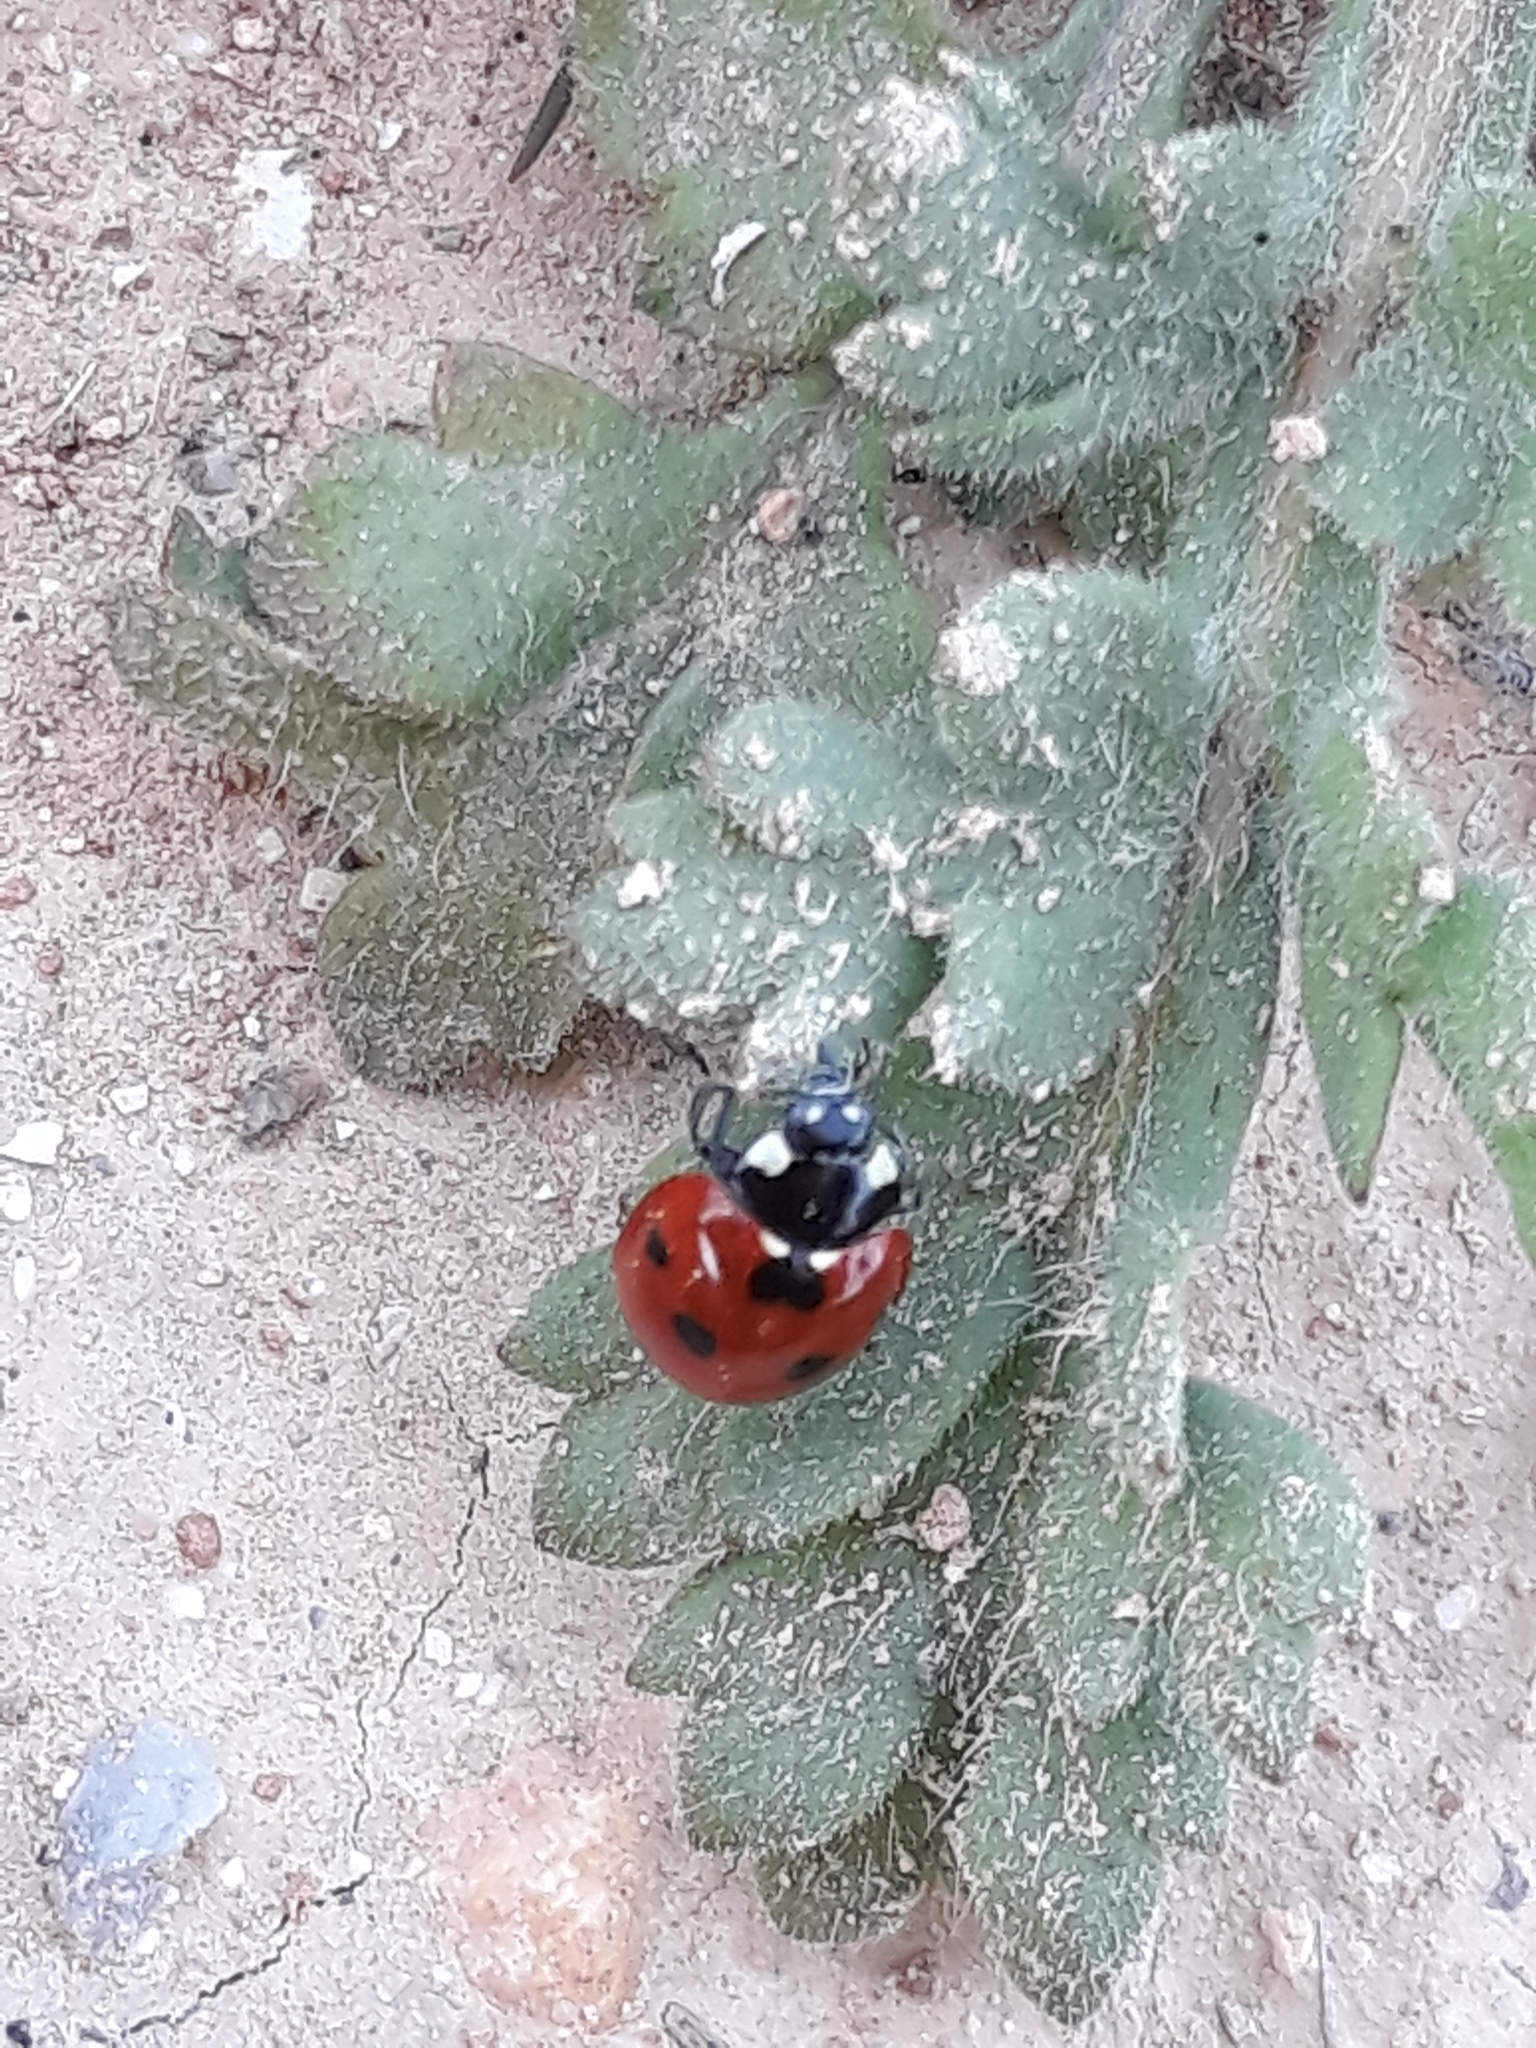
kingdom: Animalia
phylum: Arthropoda
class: Insecta
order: Coleoptera
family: Coccinellidae
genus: Coccinella
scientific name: Coccinella algerica
